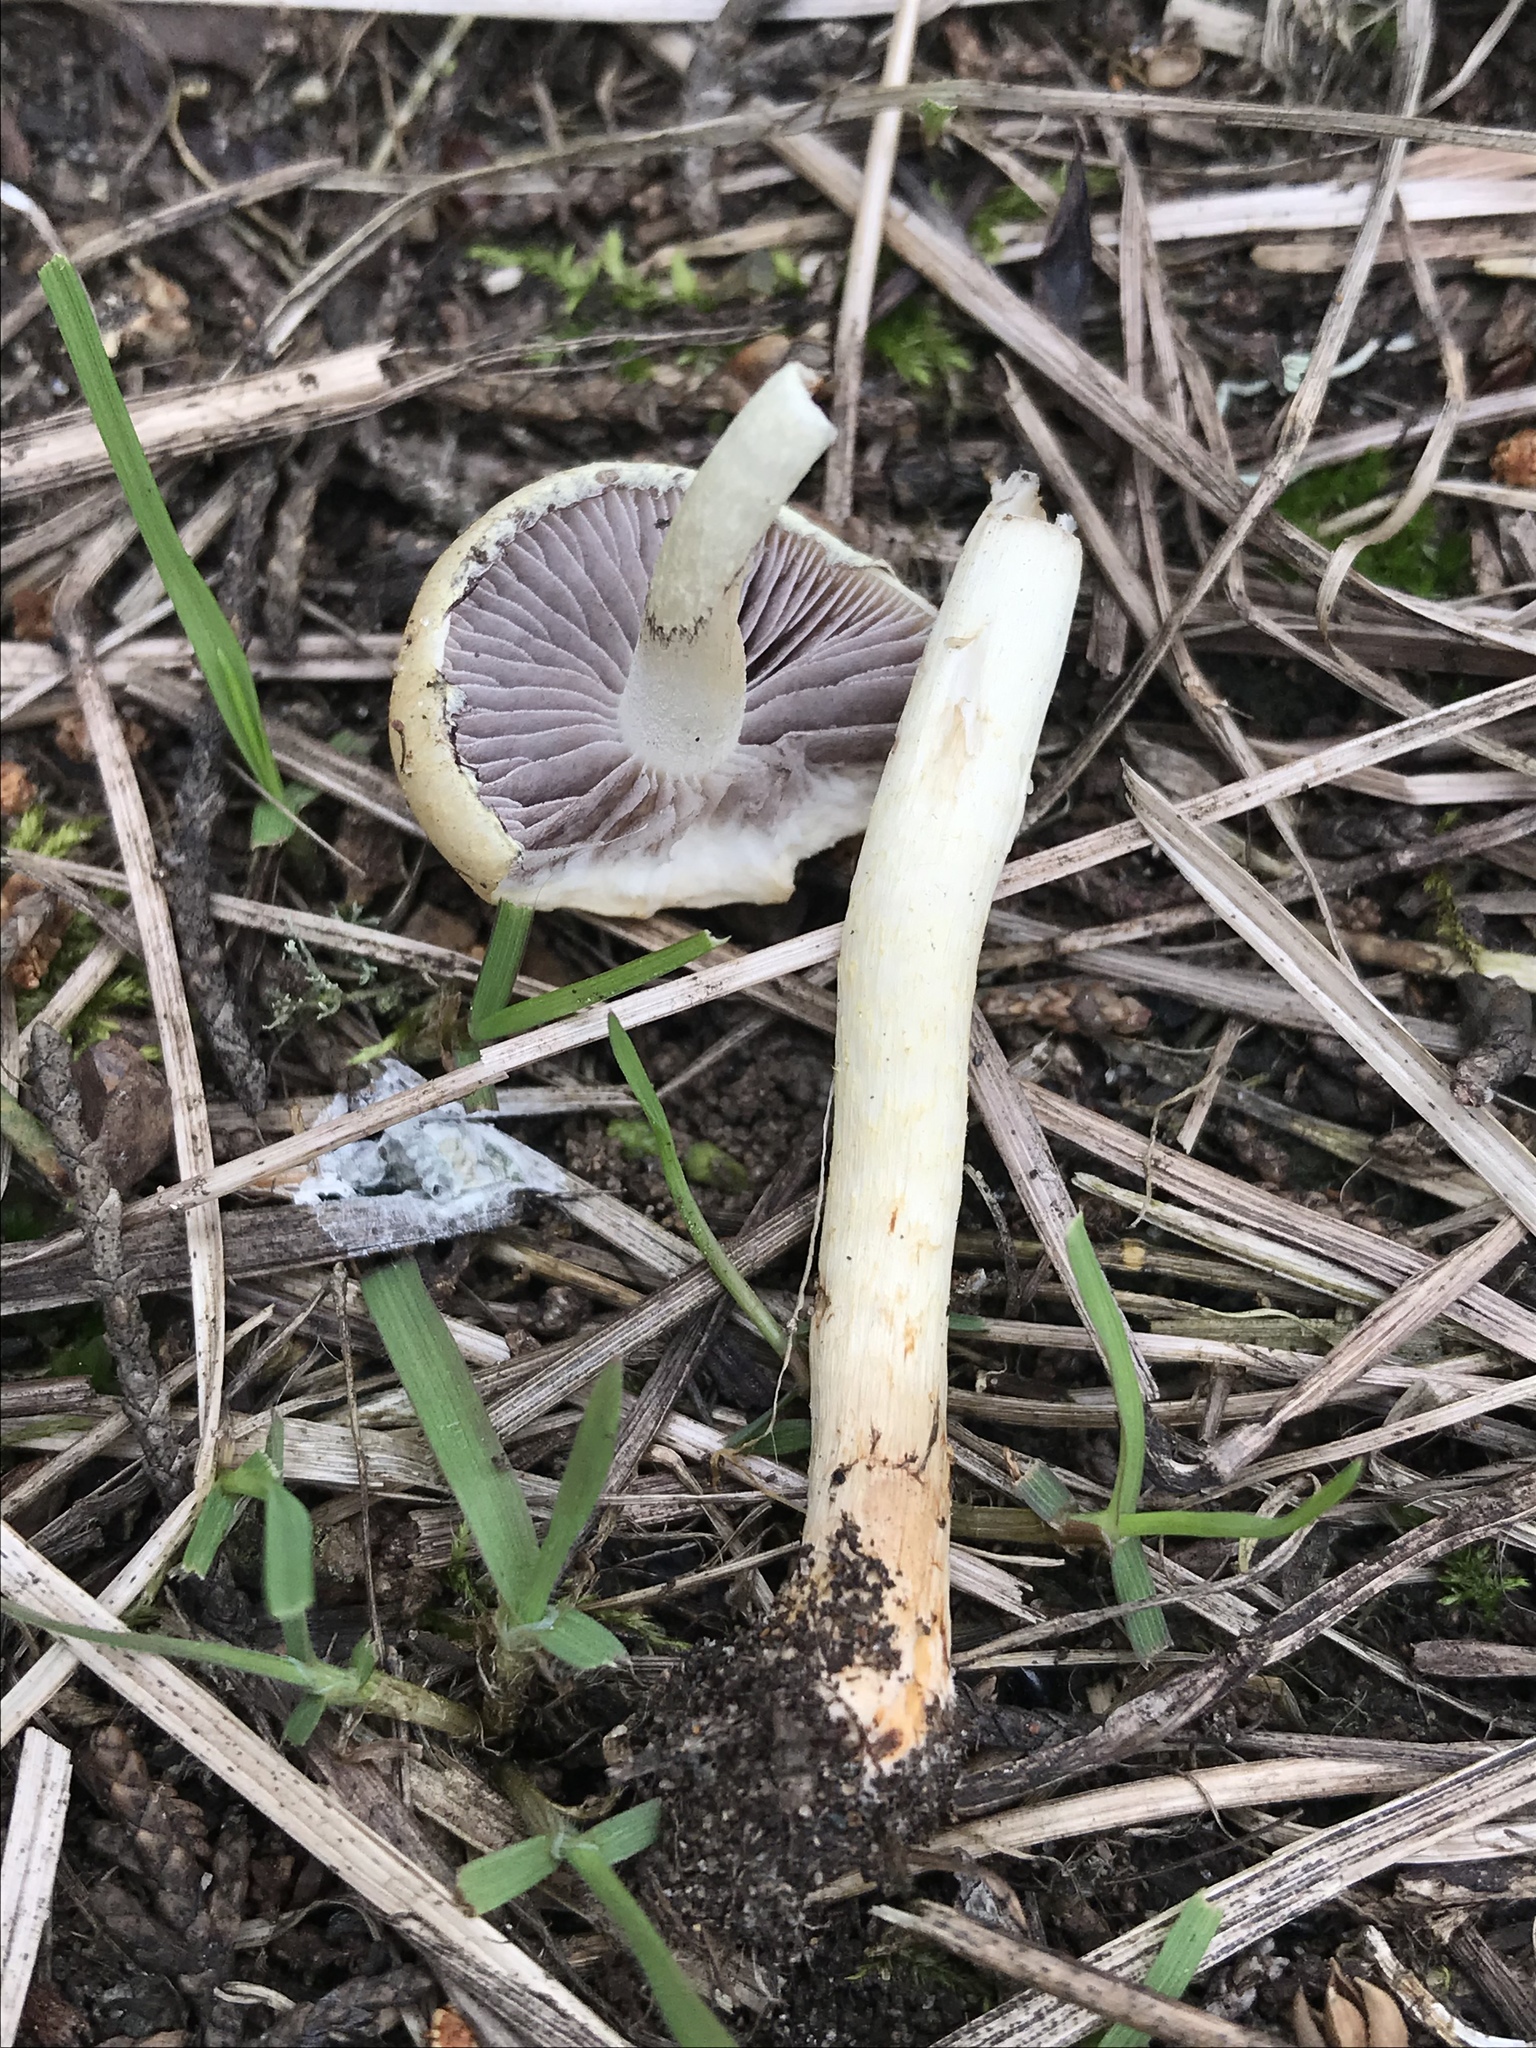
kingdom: Fungi
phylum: Basidiomycota
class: Agaricomycetes
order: Agaricales
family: Strophariaceae
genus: Leratiomyces
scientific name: Leratiomyces percevalii
